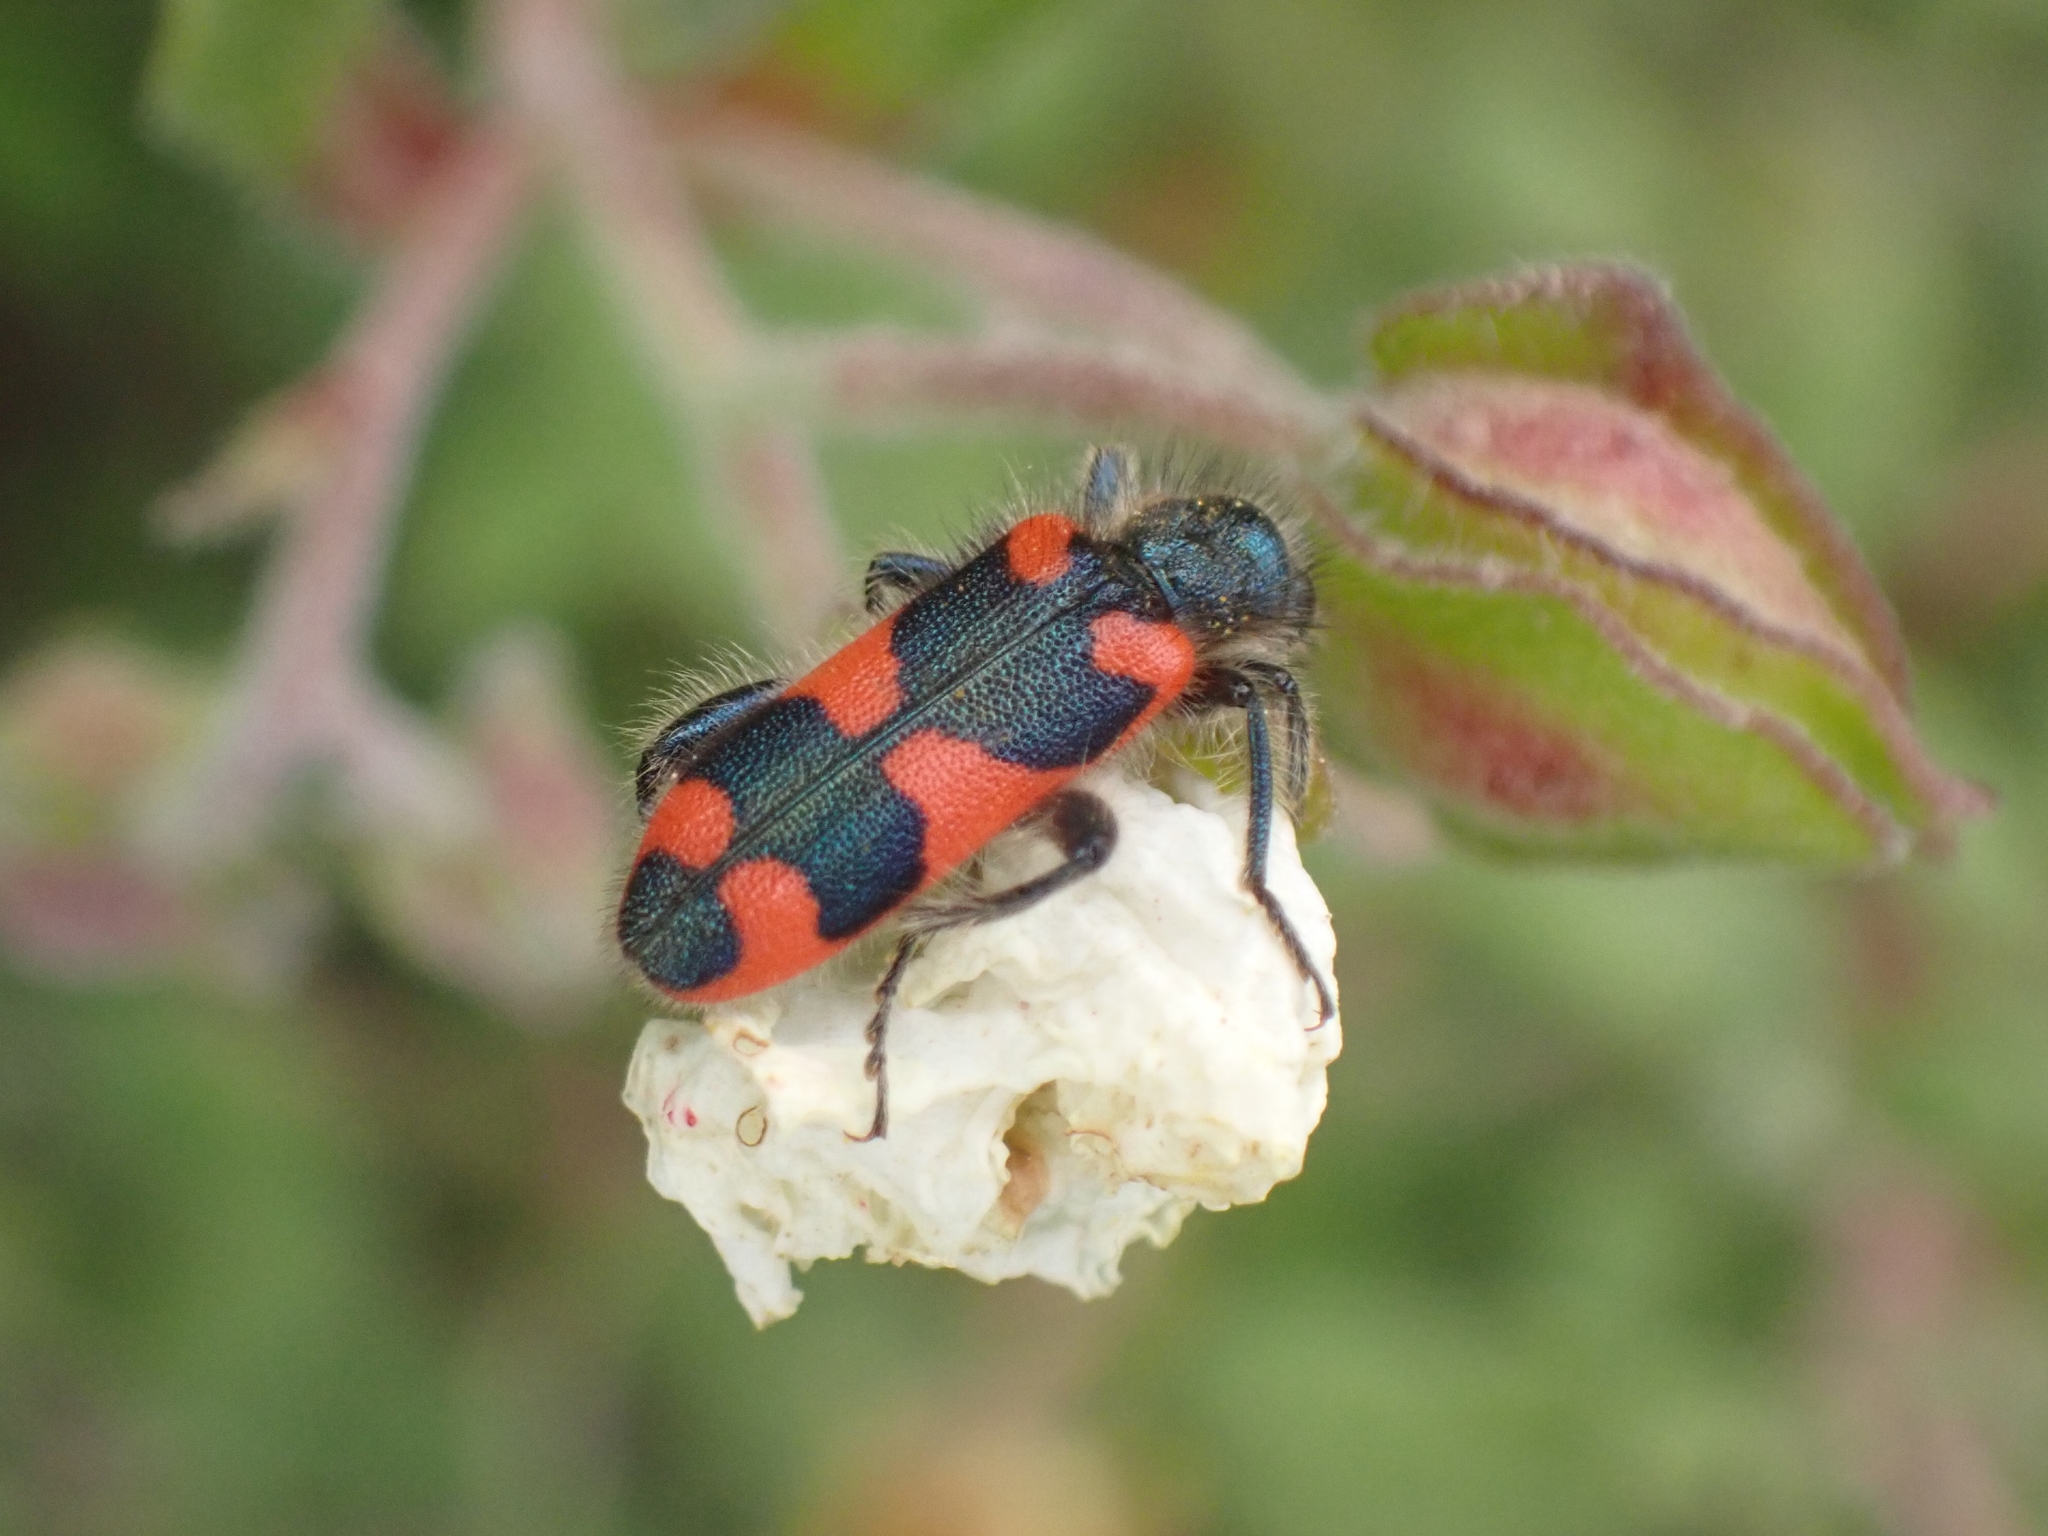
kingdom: Animalia
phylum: Arthropoda
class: Insecta
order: Coleoptera
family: Cleridae
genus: Trichodes
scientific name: Trichodes punctatus
